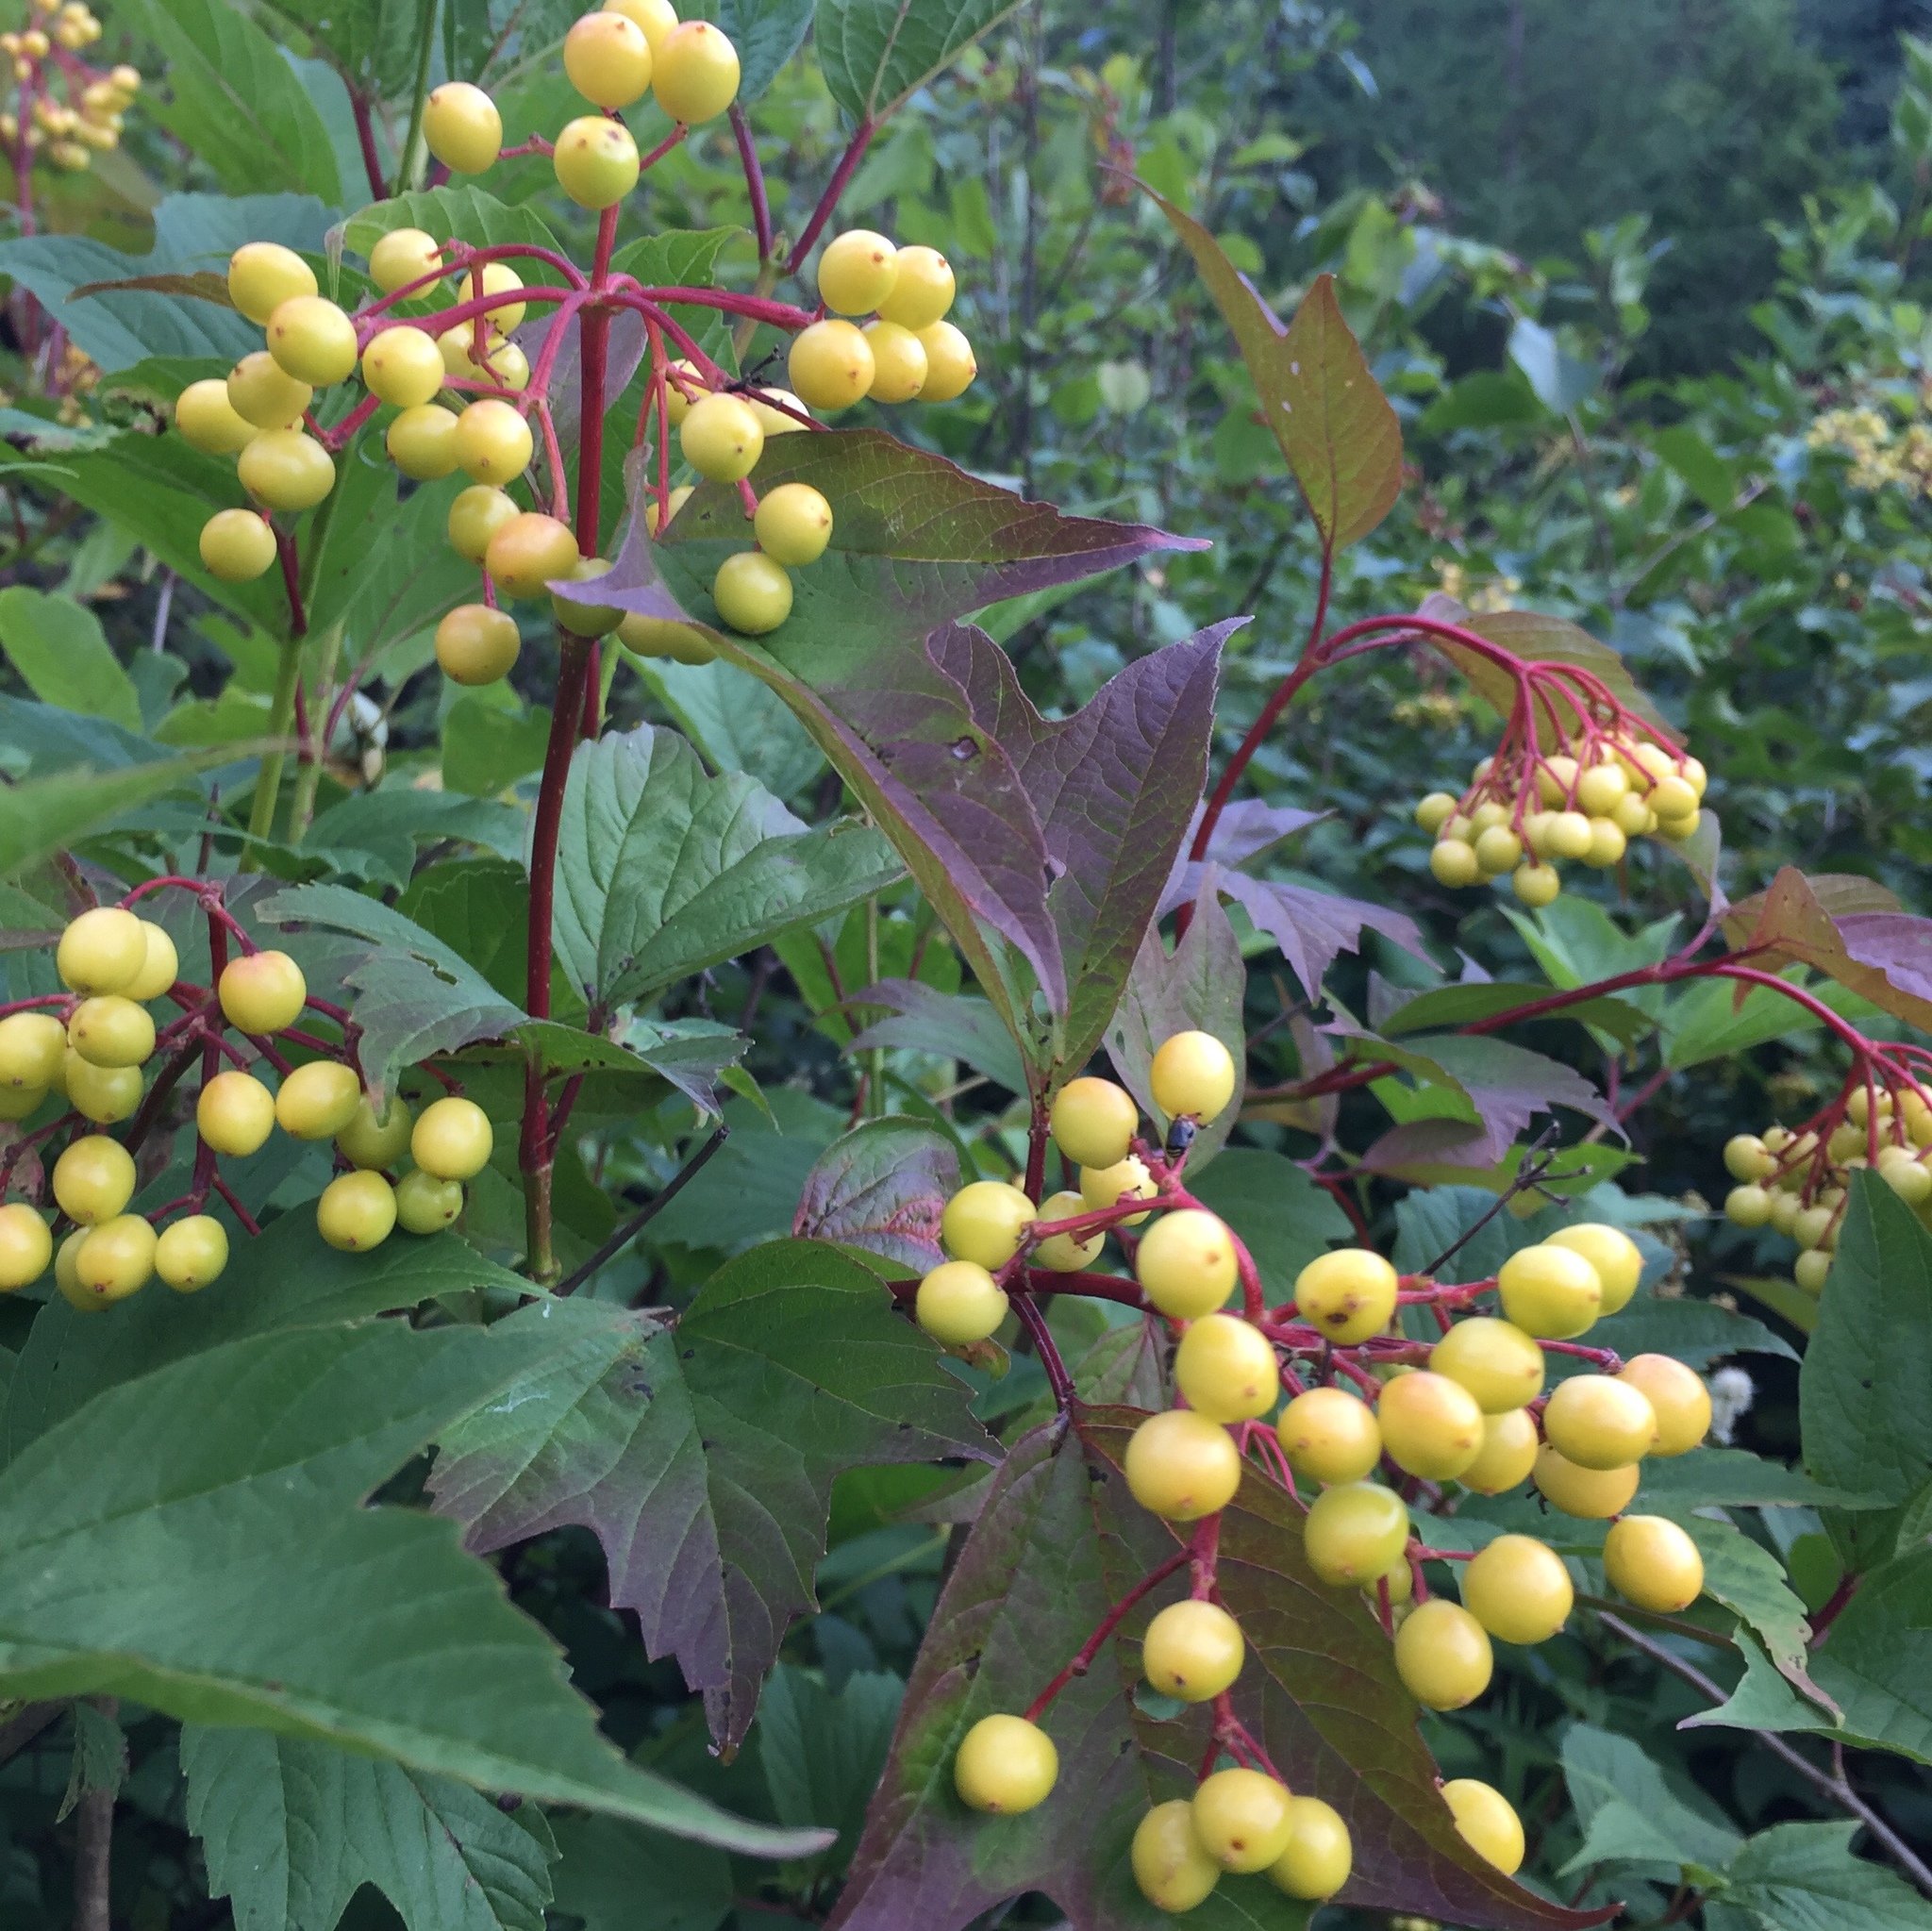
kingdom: Plantae
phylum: Tracheophyta
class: Magnoliopsida
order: Dipsacales
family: Viburnaceae
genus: Viburnum
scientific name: Viburnum opulus
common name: Guelder-rose
